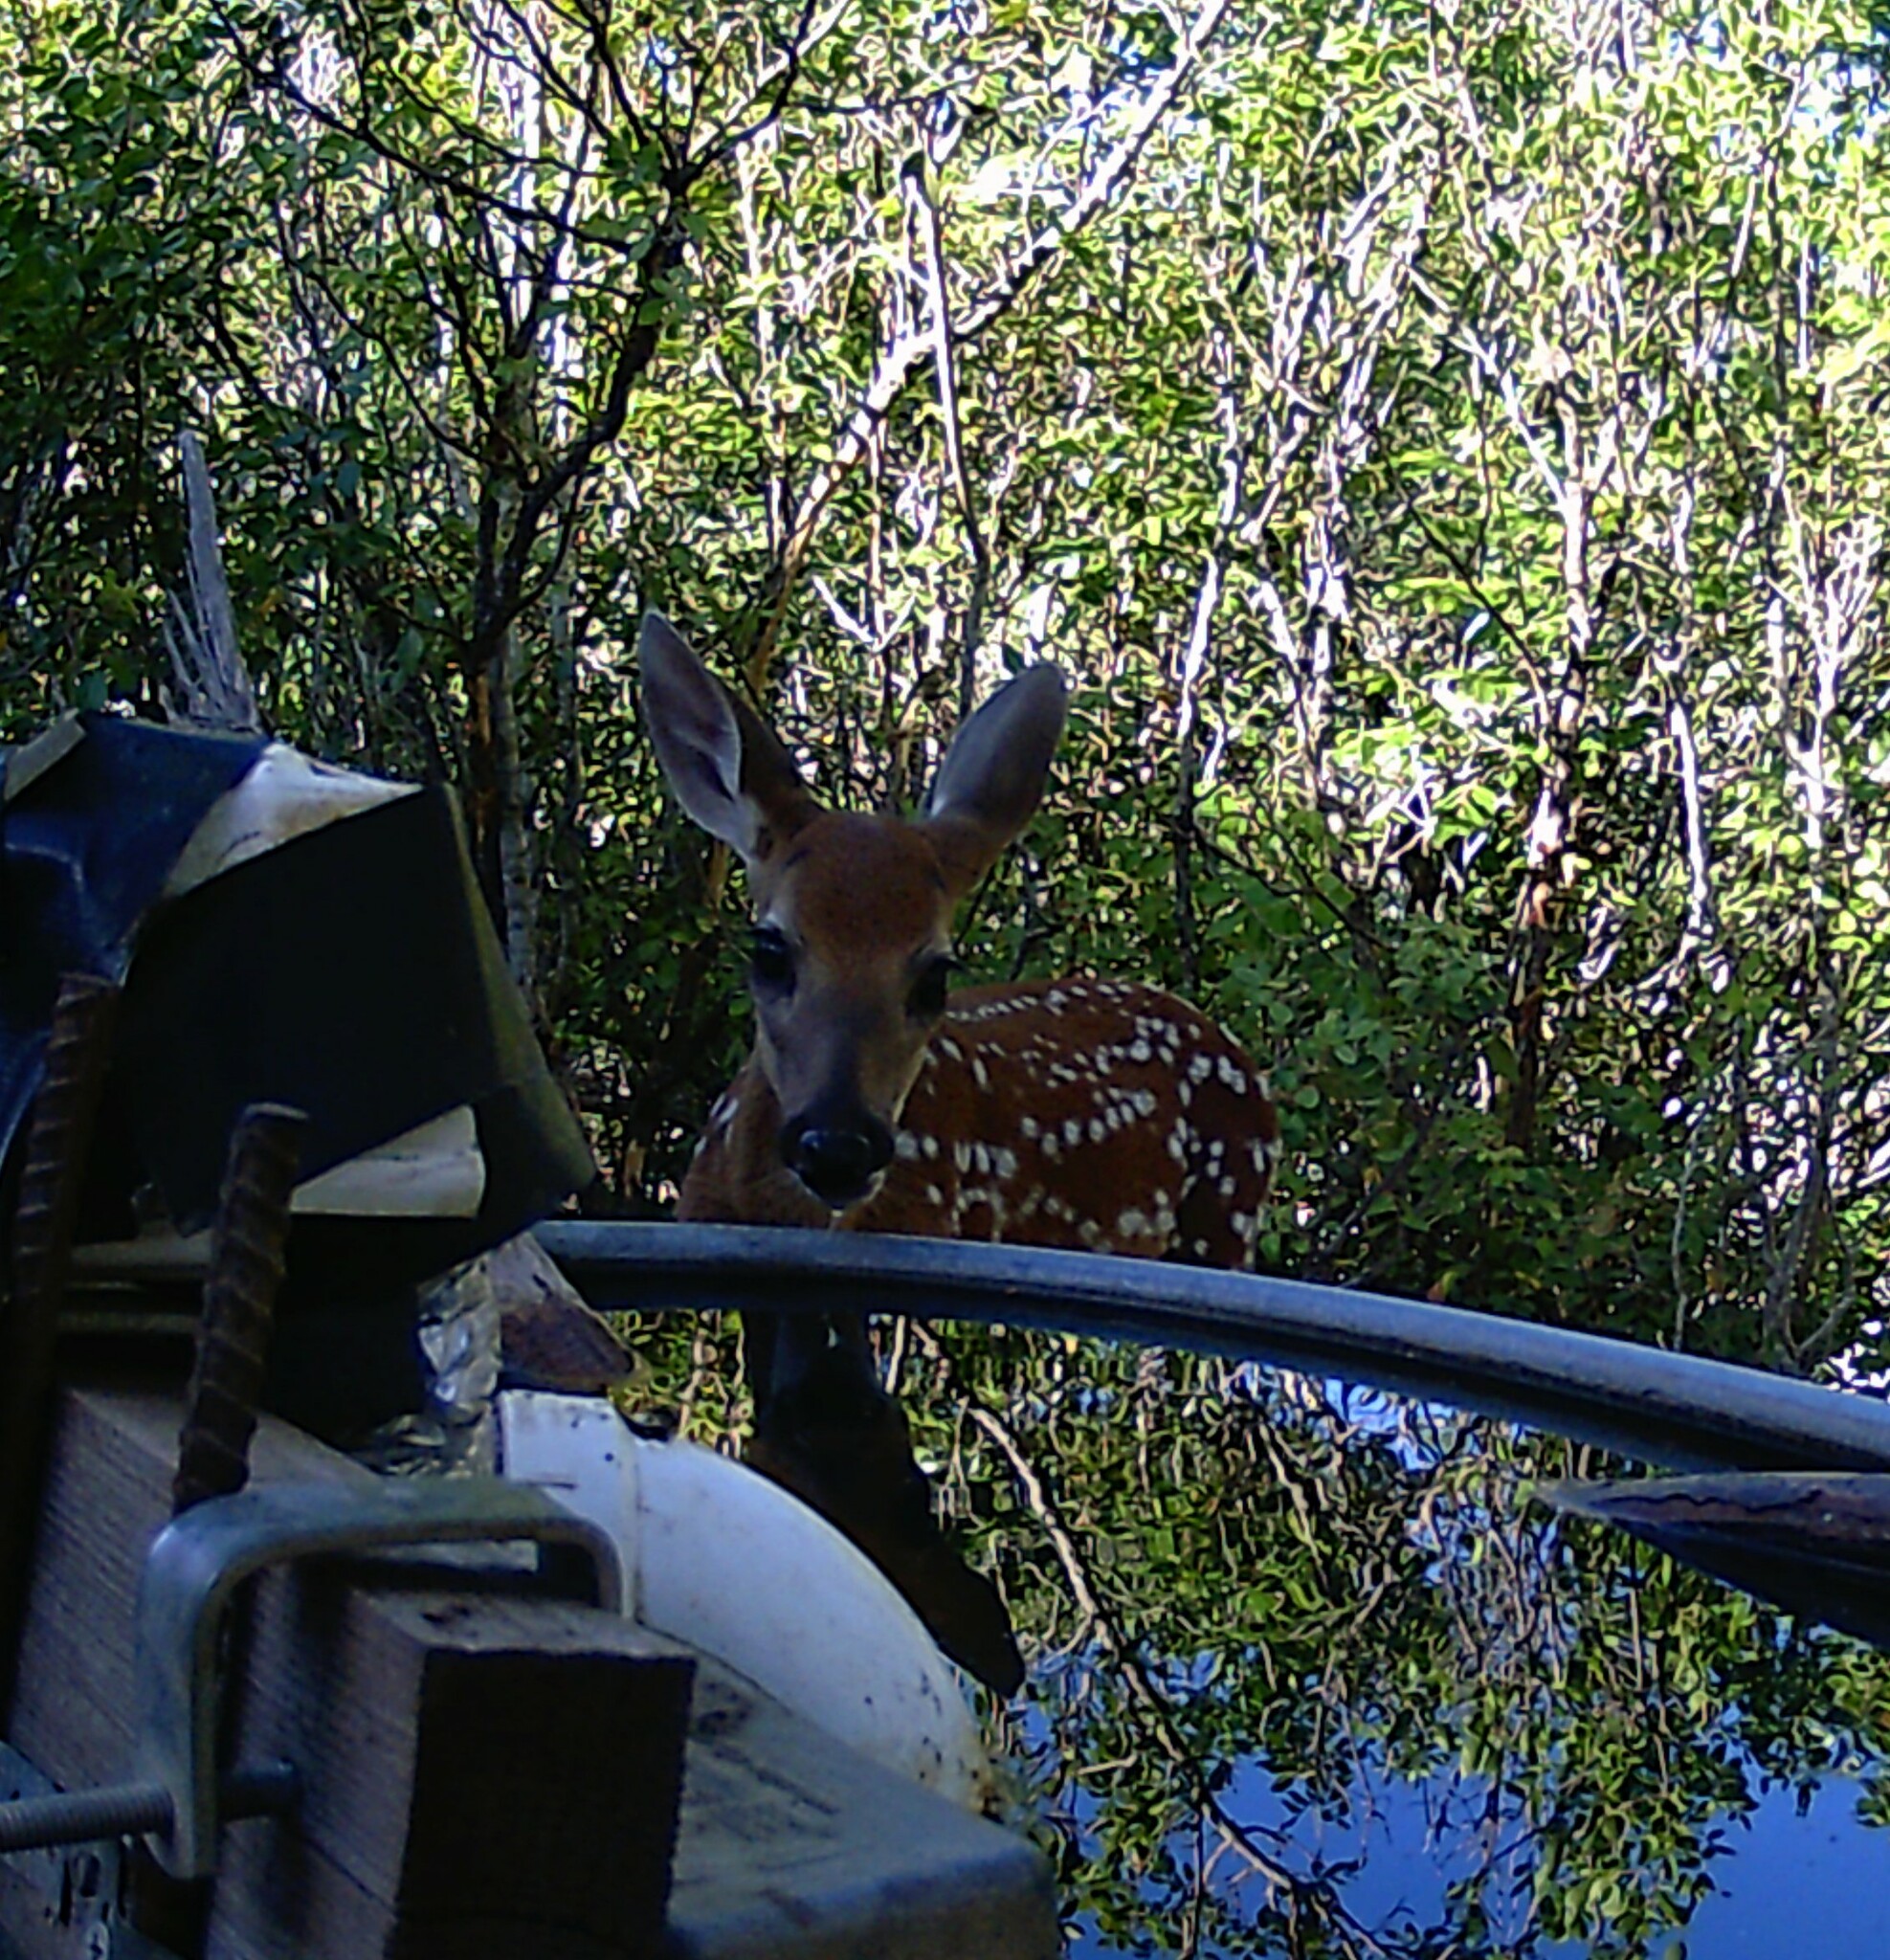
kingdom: Animalia
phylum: Chordata
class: Mammalia
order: Artiodactyla
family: Cervidae
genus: Odocoileus
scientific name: Odocoileus virginianus
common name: White-tailed deer
